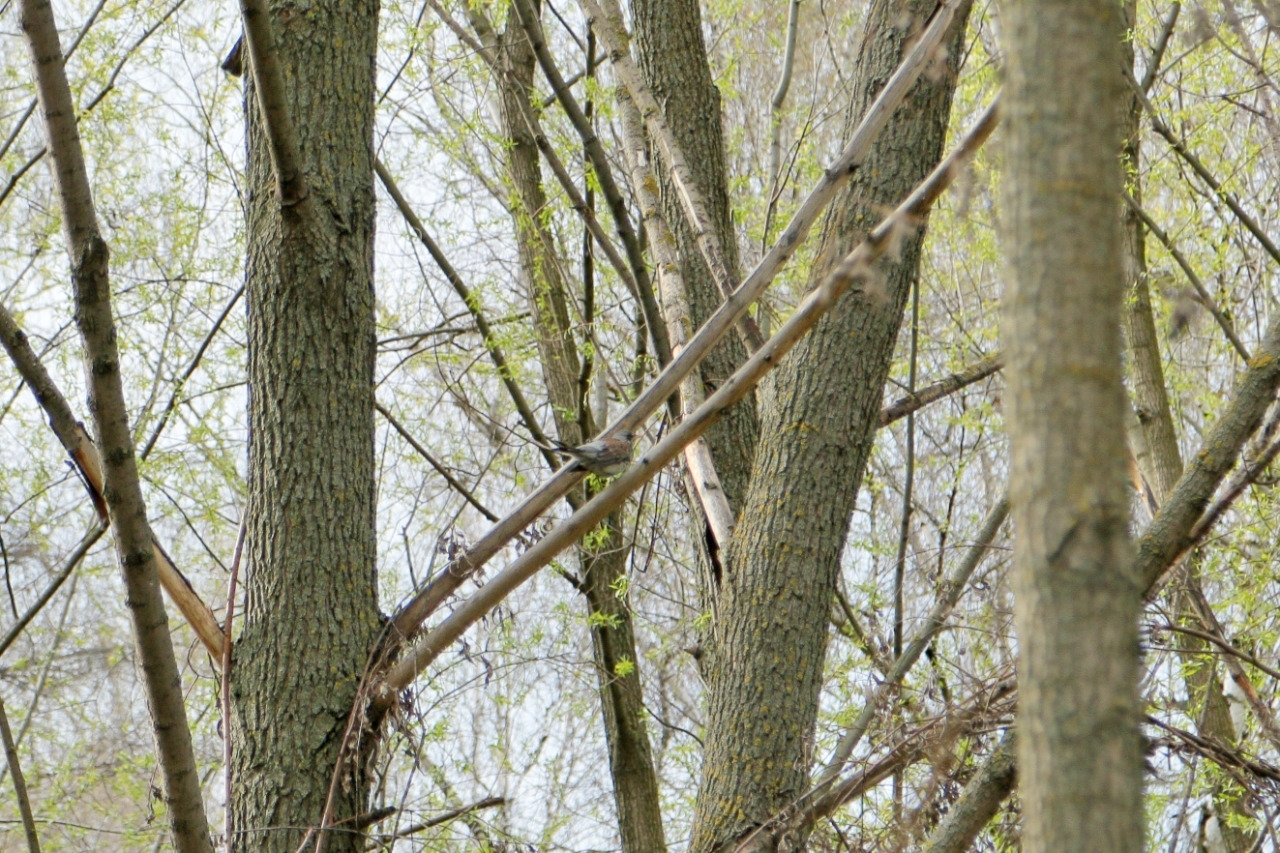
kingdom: Animalia
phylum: Chordata
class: Aves
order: Passeriformes
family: Turdidae
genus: Turdus
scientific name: Turdus pilaris
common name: Fieldfare
